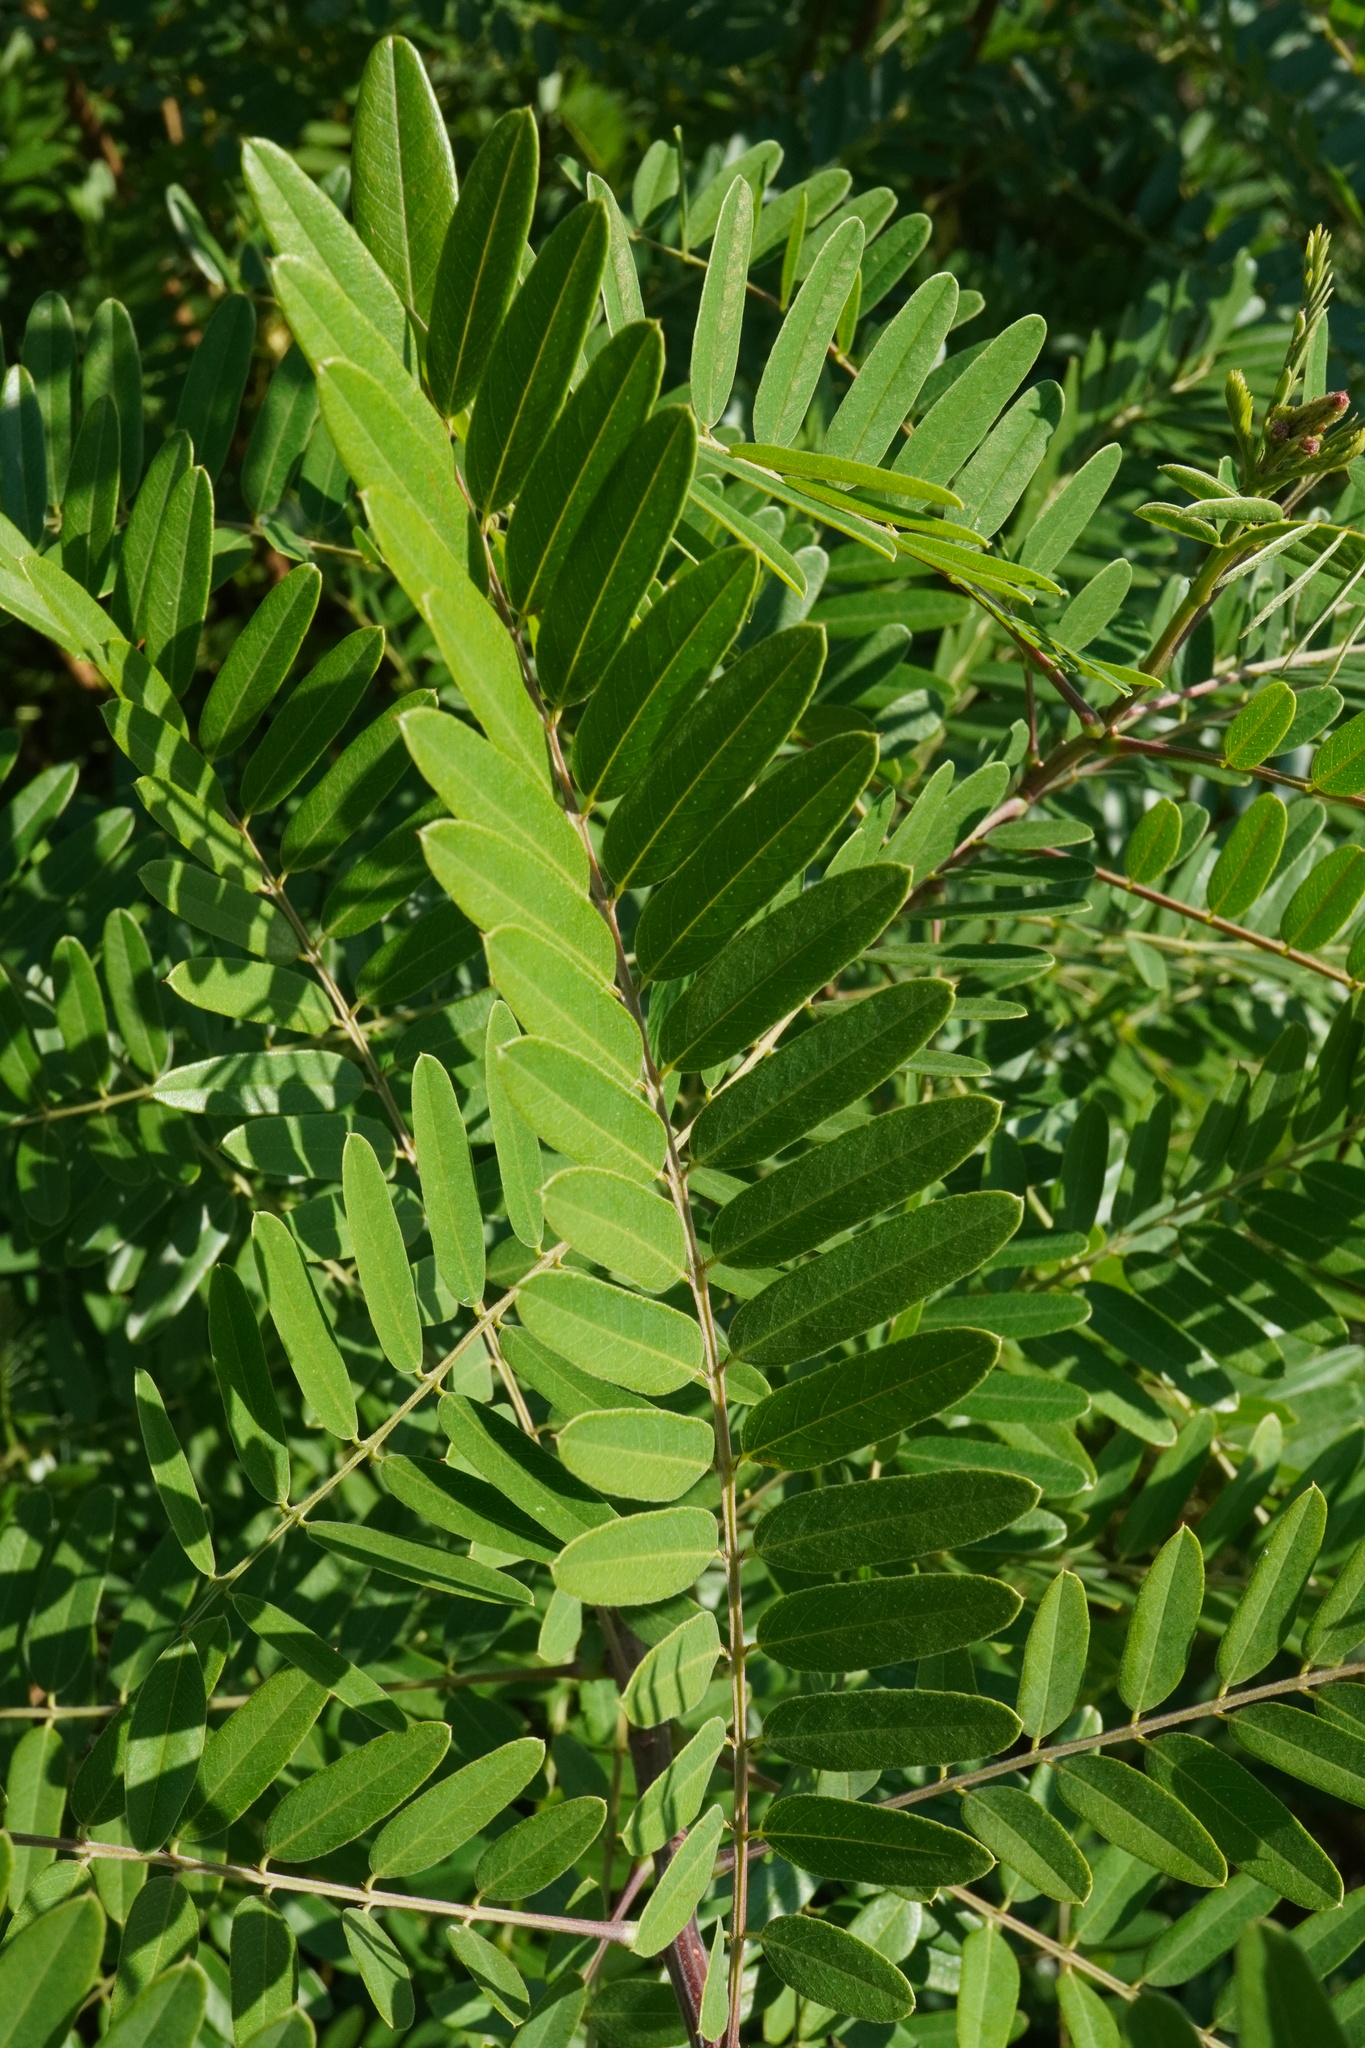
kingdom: Plantae
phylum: Tracheophyta
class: Magnoliopsida
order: Fabales
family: Fabaceae
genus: Amorpha
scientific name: Amorpha fruticosa
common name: False indigo
